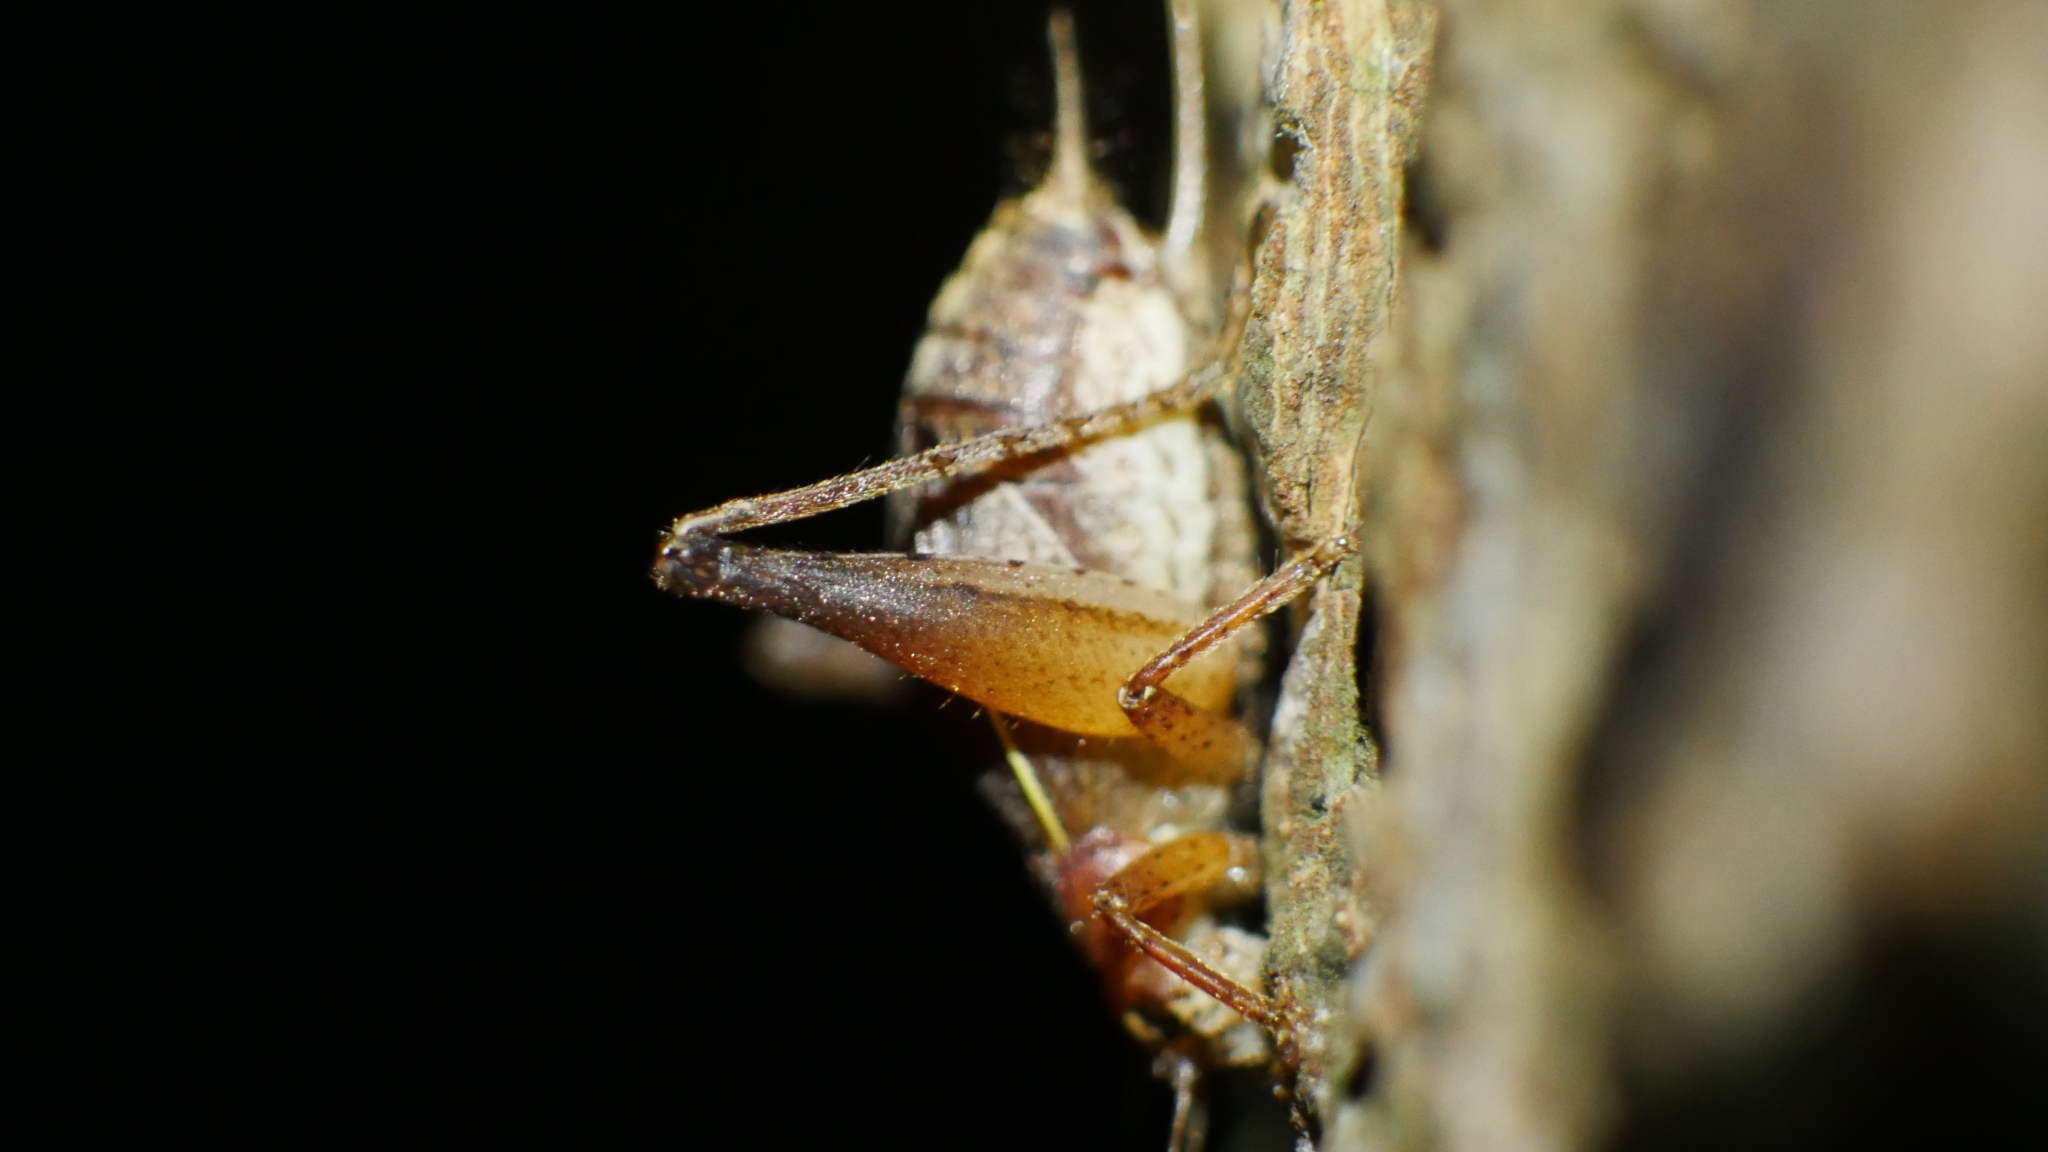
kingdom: Animalia
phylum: Arthropoda
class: Insecta
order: Orthoptera
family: Gryllidae
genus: Hapithus
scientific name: Hapithus agitator
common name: Restless bush cricket
